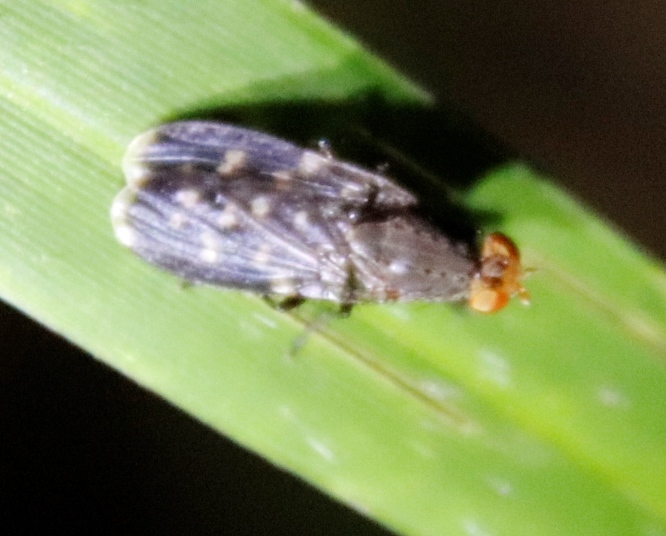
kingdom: Animalia
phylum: Arthropoda
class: Insecta
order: Diptera
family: Heleomyzidae
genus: Suillia
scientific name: Suillia picta
